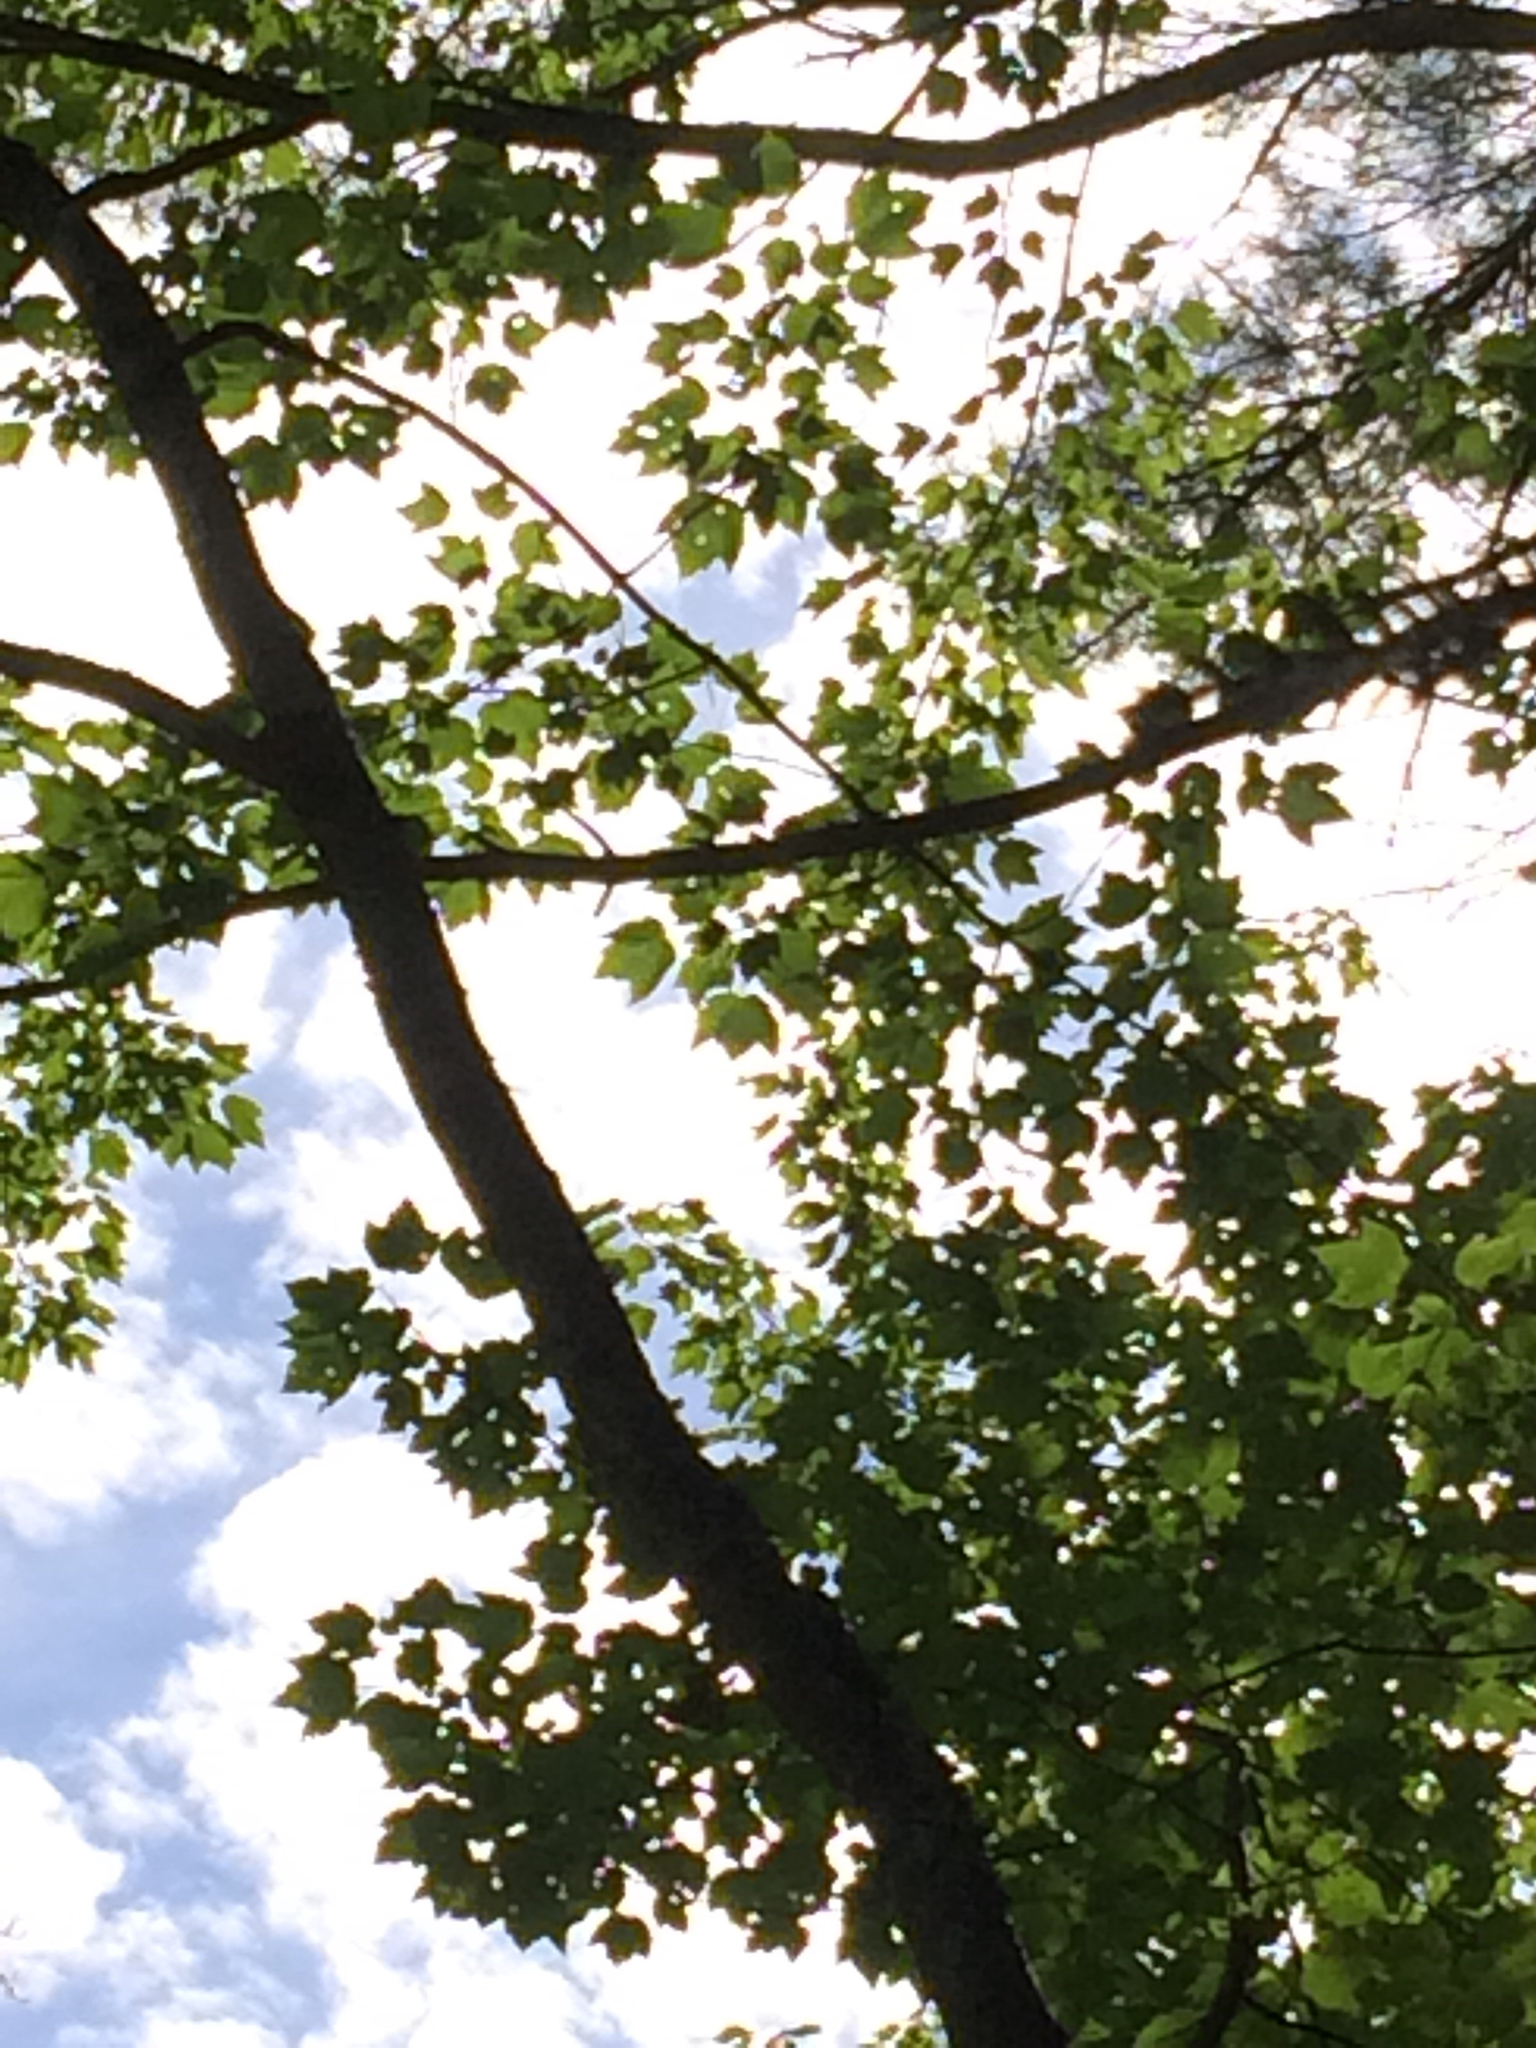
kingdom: Plantae
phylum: Tracheophyta
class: Magnoliopsida
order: Sapindales
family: Sapindaceae
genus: Acer
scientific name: Acer rubrum
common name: Red maple
